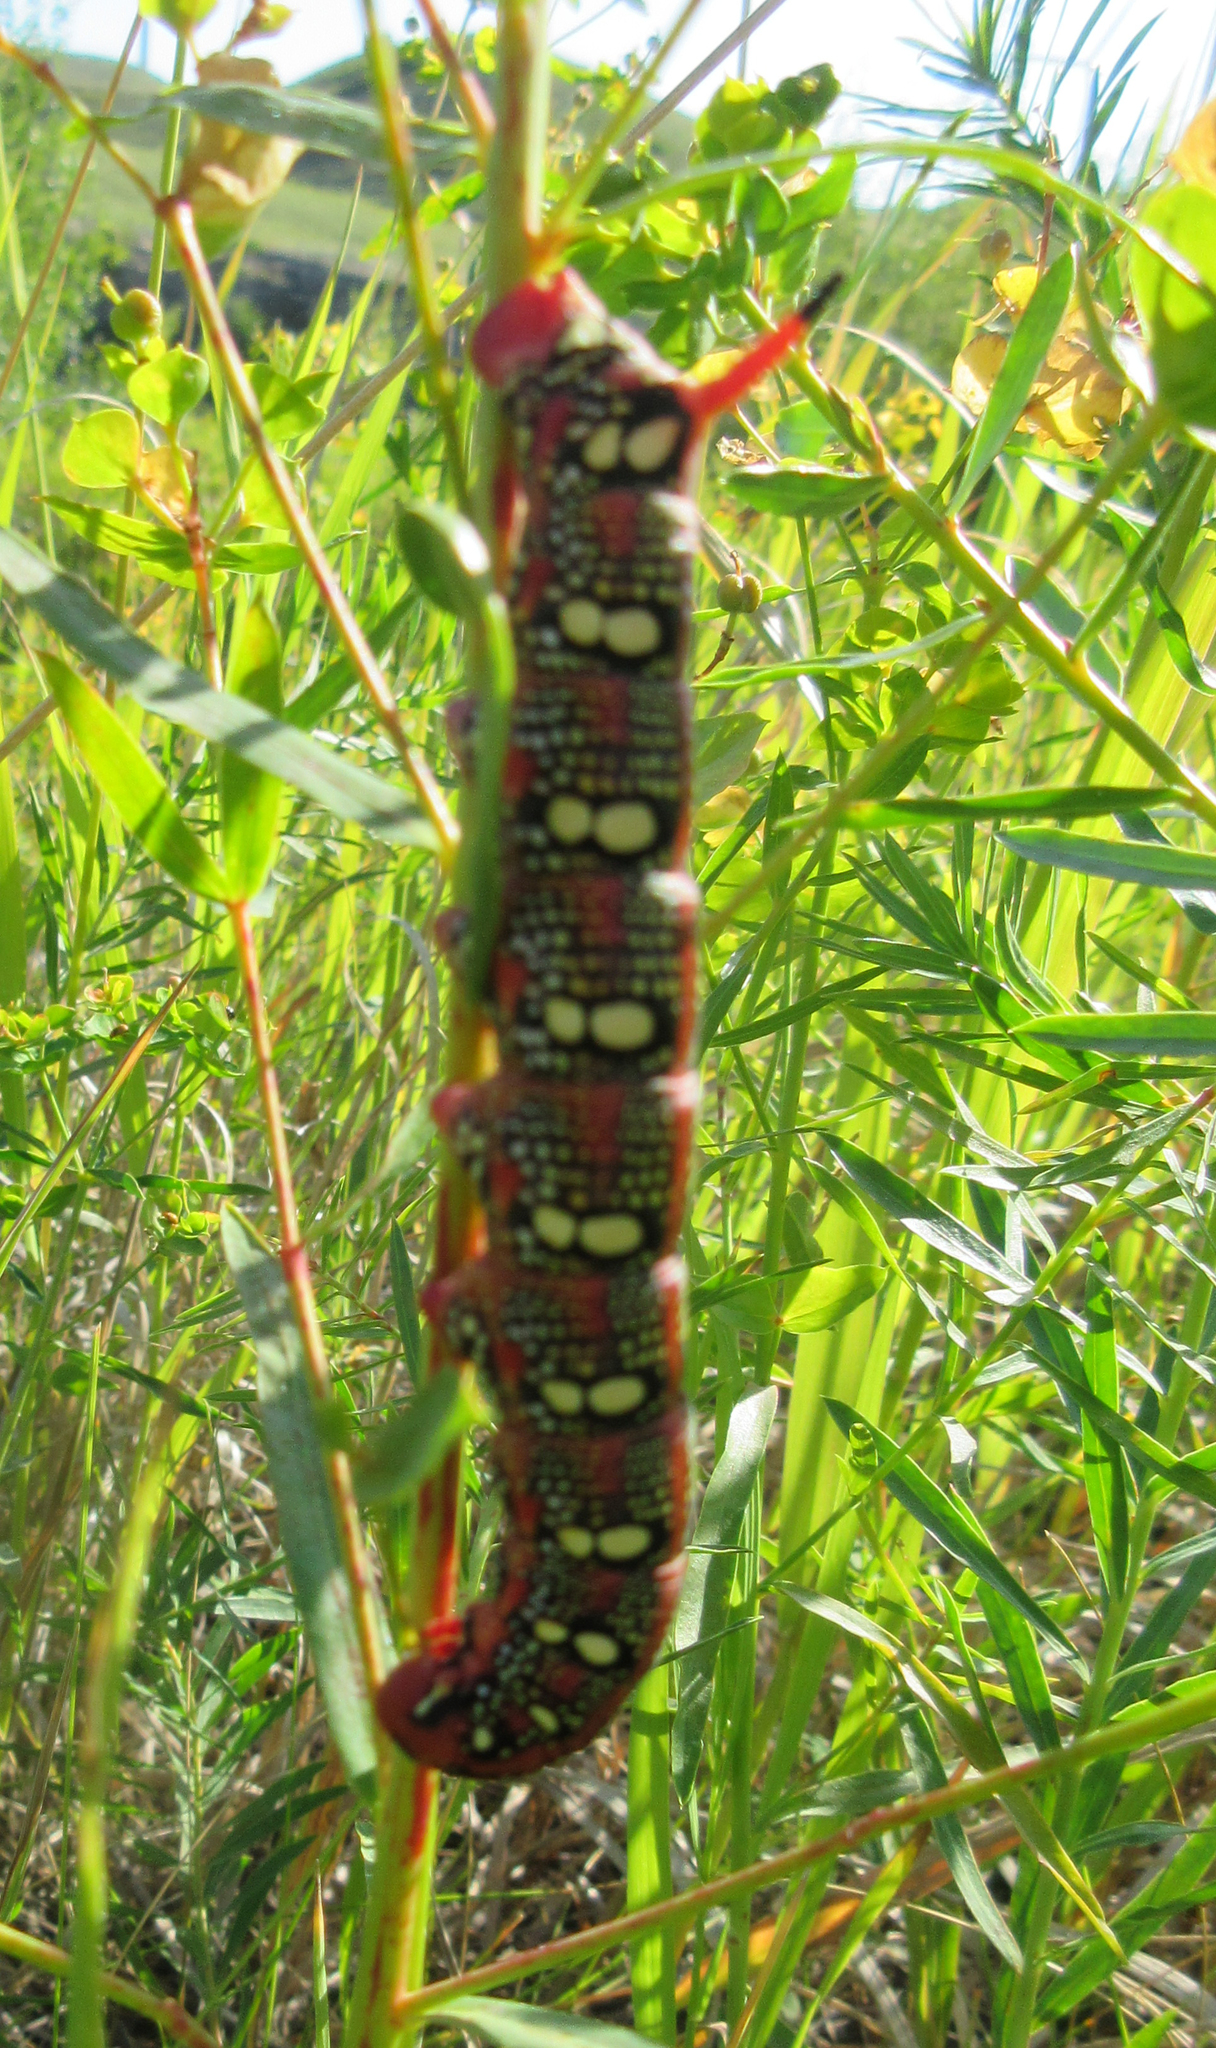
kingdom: Animalia
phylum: Arthropoda
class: Insecta
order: Lepidoptera
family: Sphingidae
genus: Hyles
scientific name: Hyles euphorbiae
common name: Spurge hawk-moth
